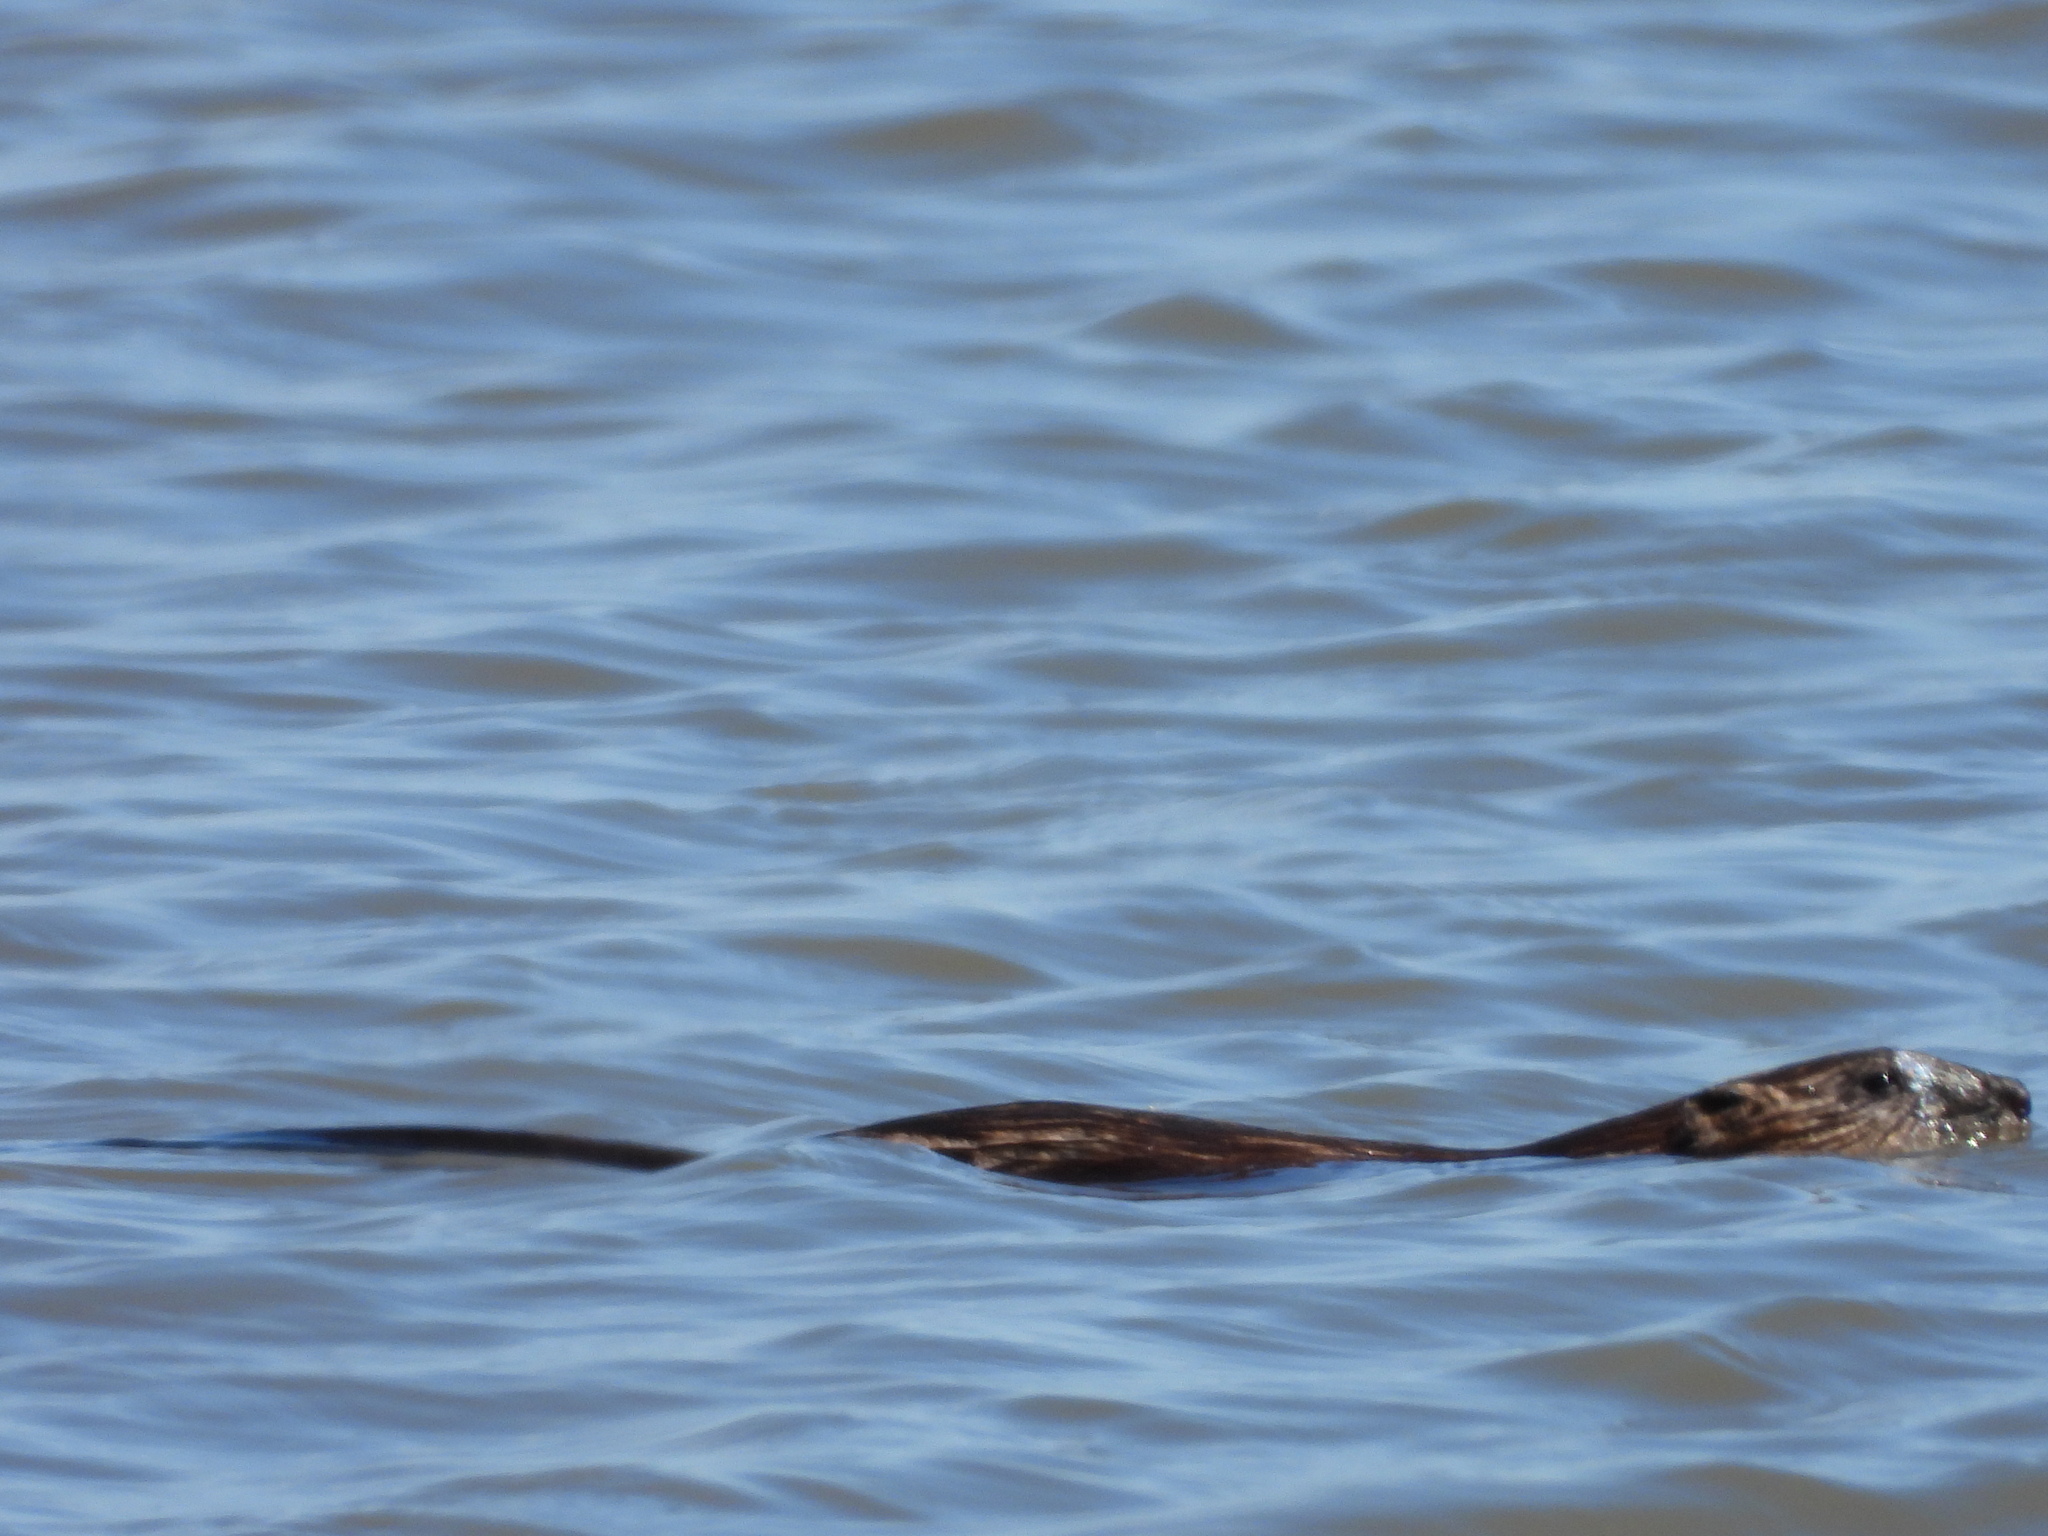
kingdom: Animalia
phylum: Chordata
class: Mammalia
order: Rodentia
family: Cricetidae
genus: Ondatra
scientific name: Ondatra zibethicus
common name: Muskrat
